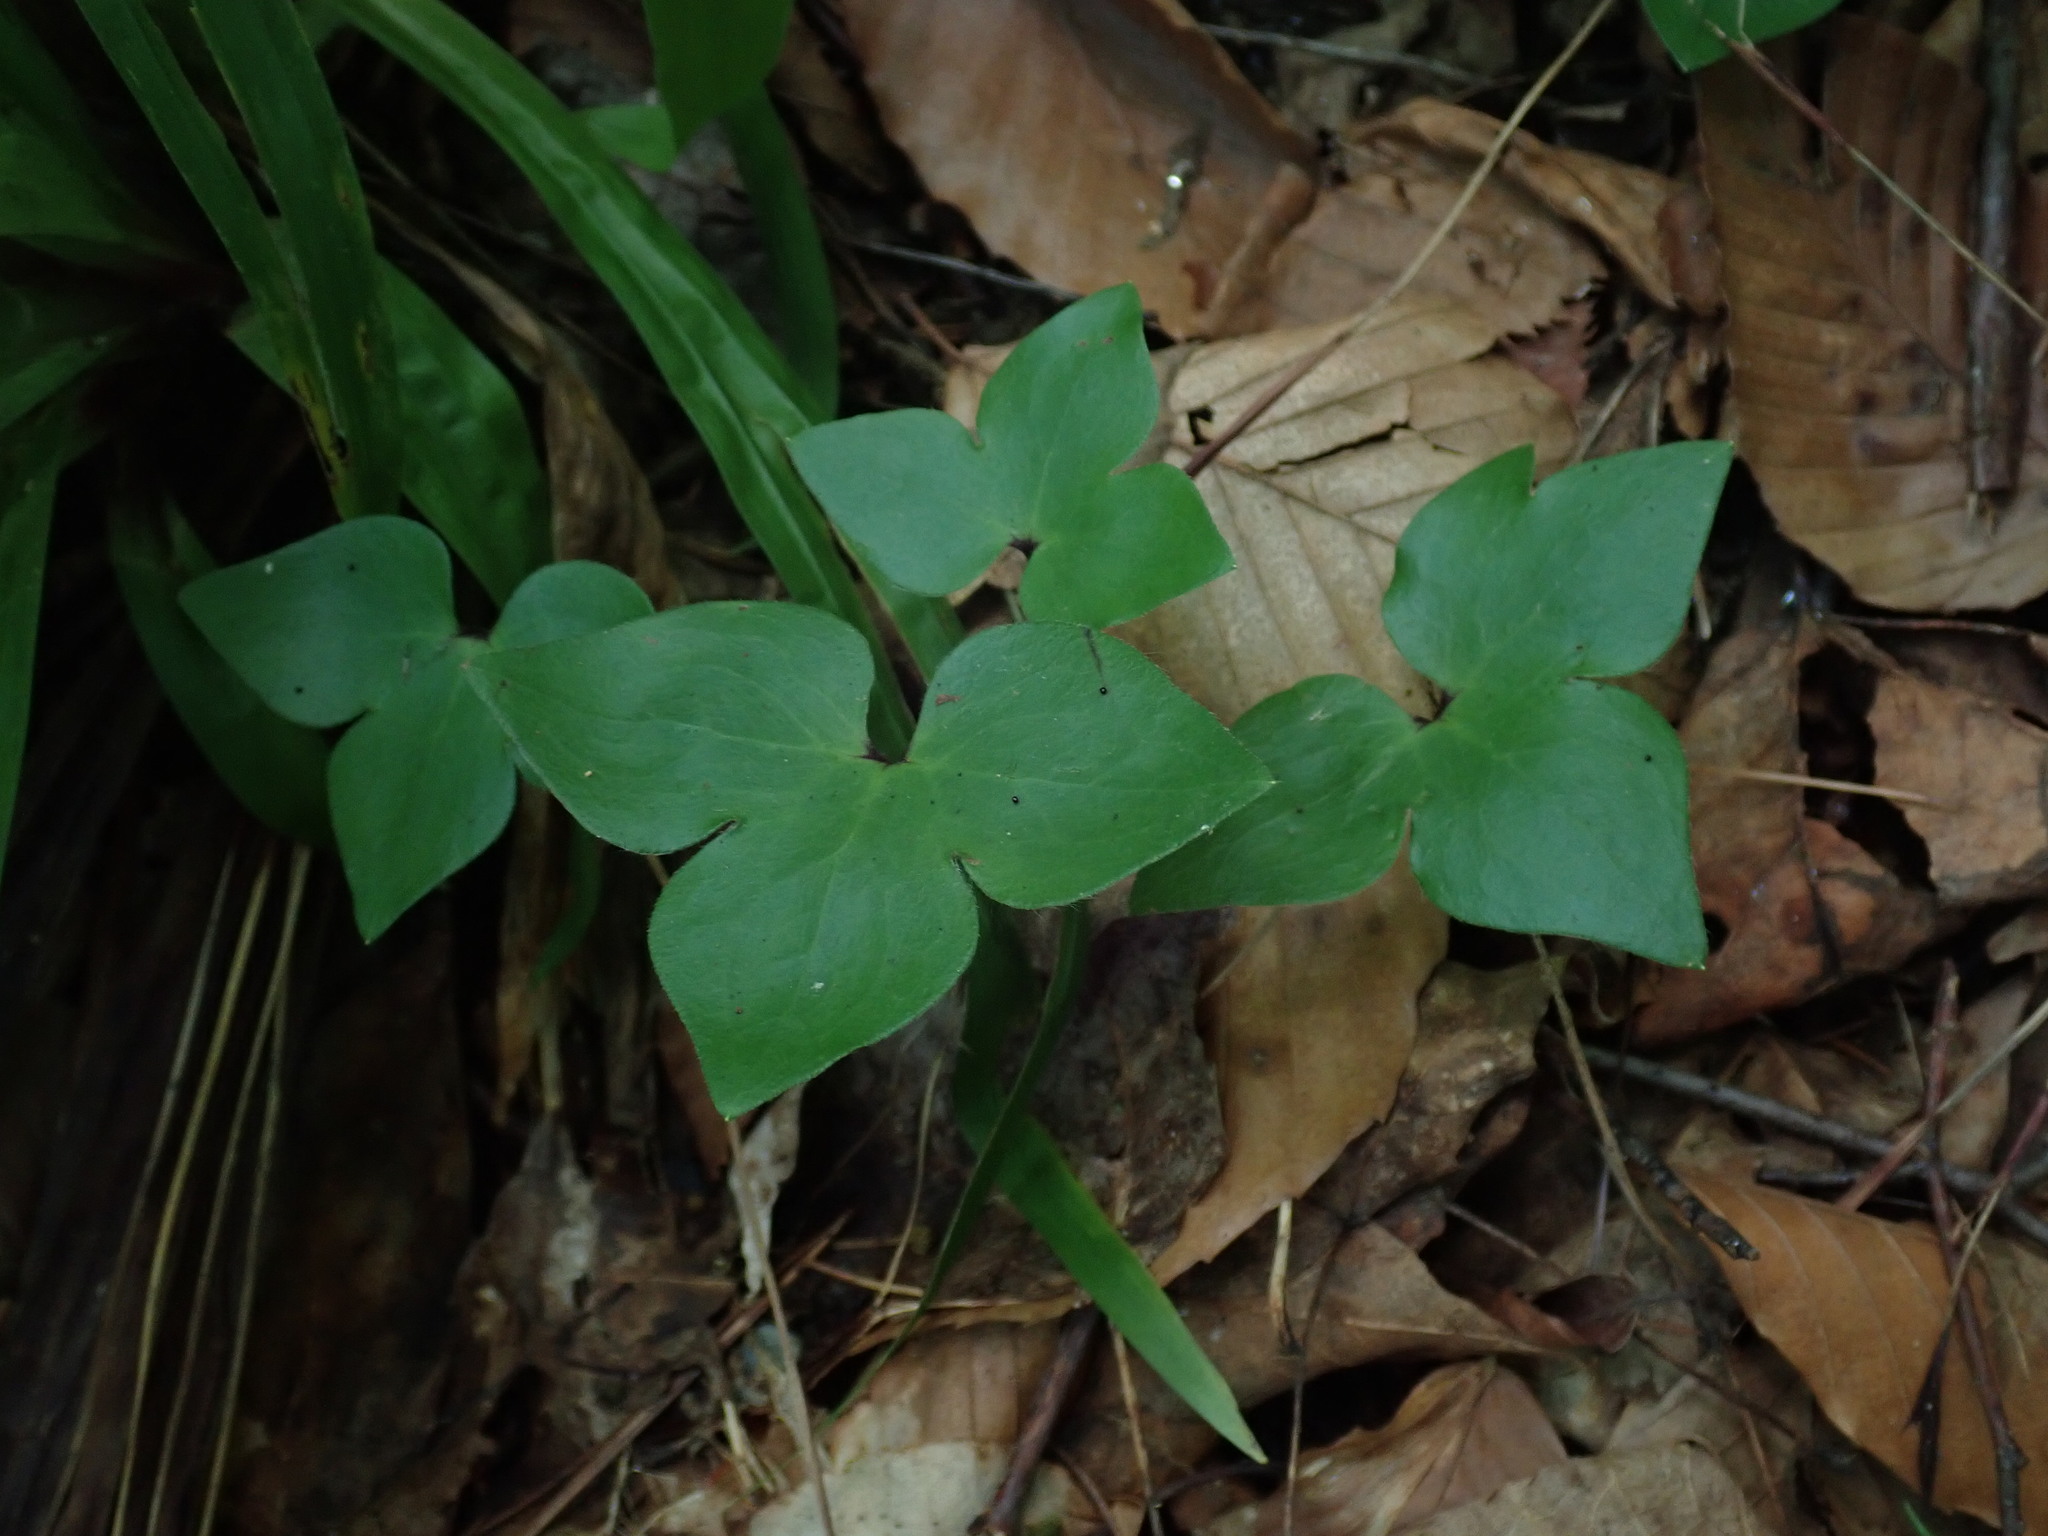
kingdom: Plantae
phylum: Tracheophyta
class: Magnoliopsida
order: Ranunculales
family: Ranunculaceae
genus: Hepatica
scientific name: Hepatica acutiloba
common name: Sharp-lobed hepatica
